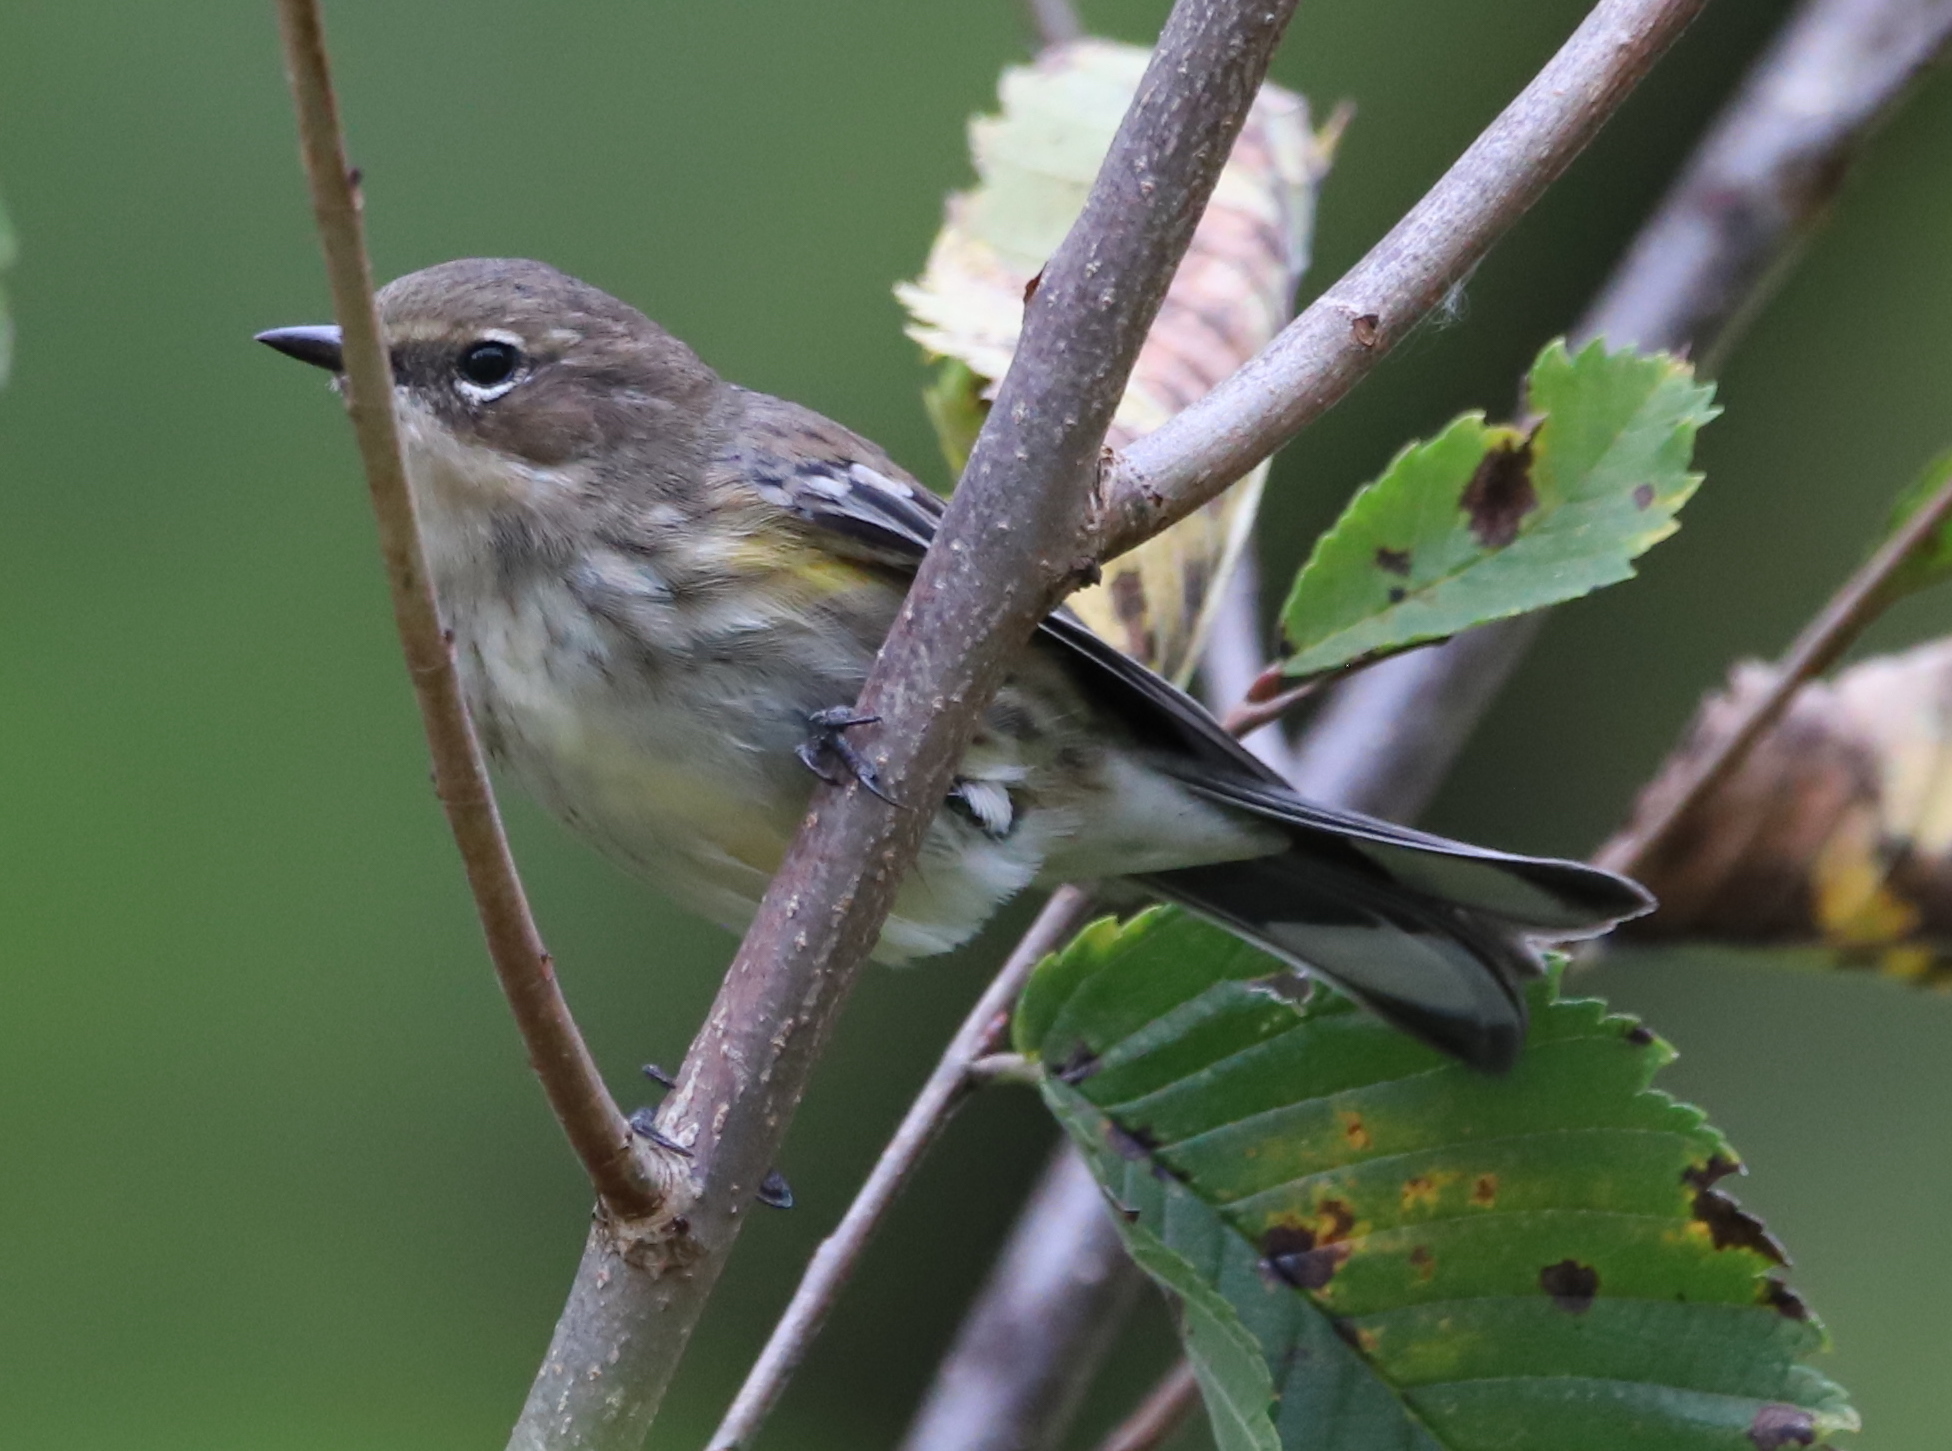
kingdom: Animalia
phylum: Chordata
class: Aves
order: Passeriformes
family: Parulidae
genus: Setophaga
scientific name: Setophaga coronata
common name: Myrtle warbler
